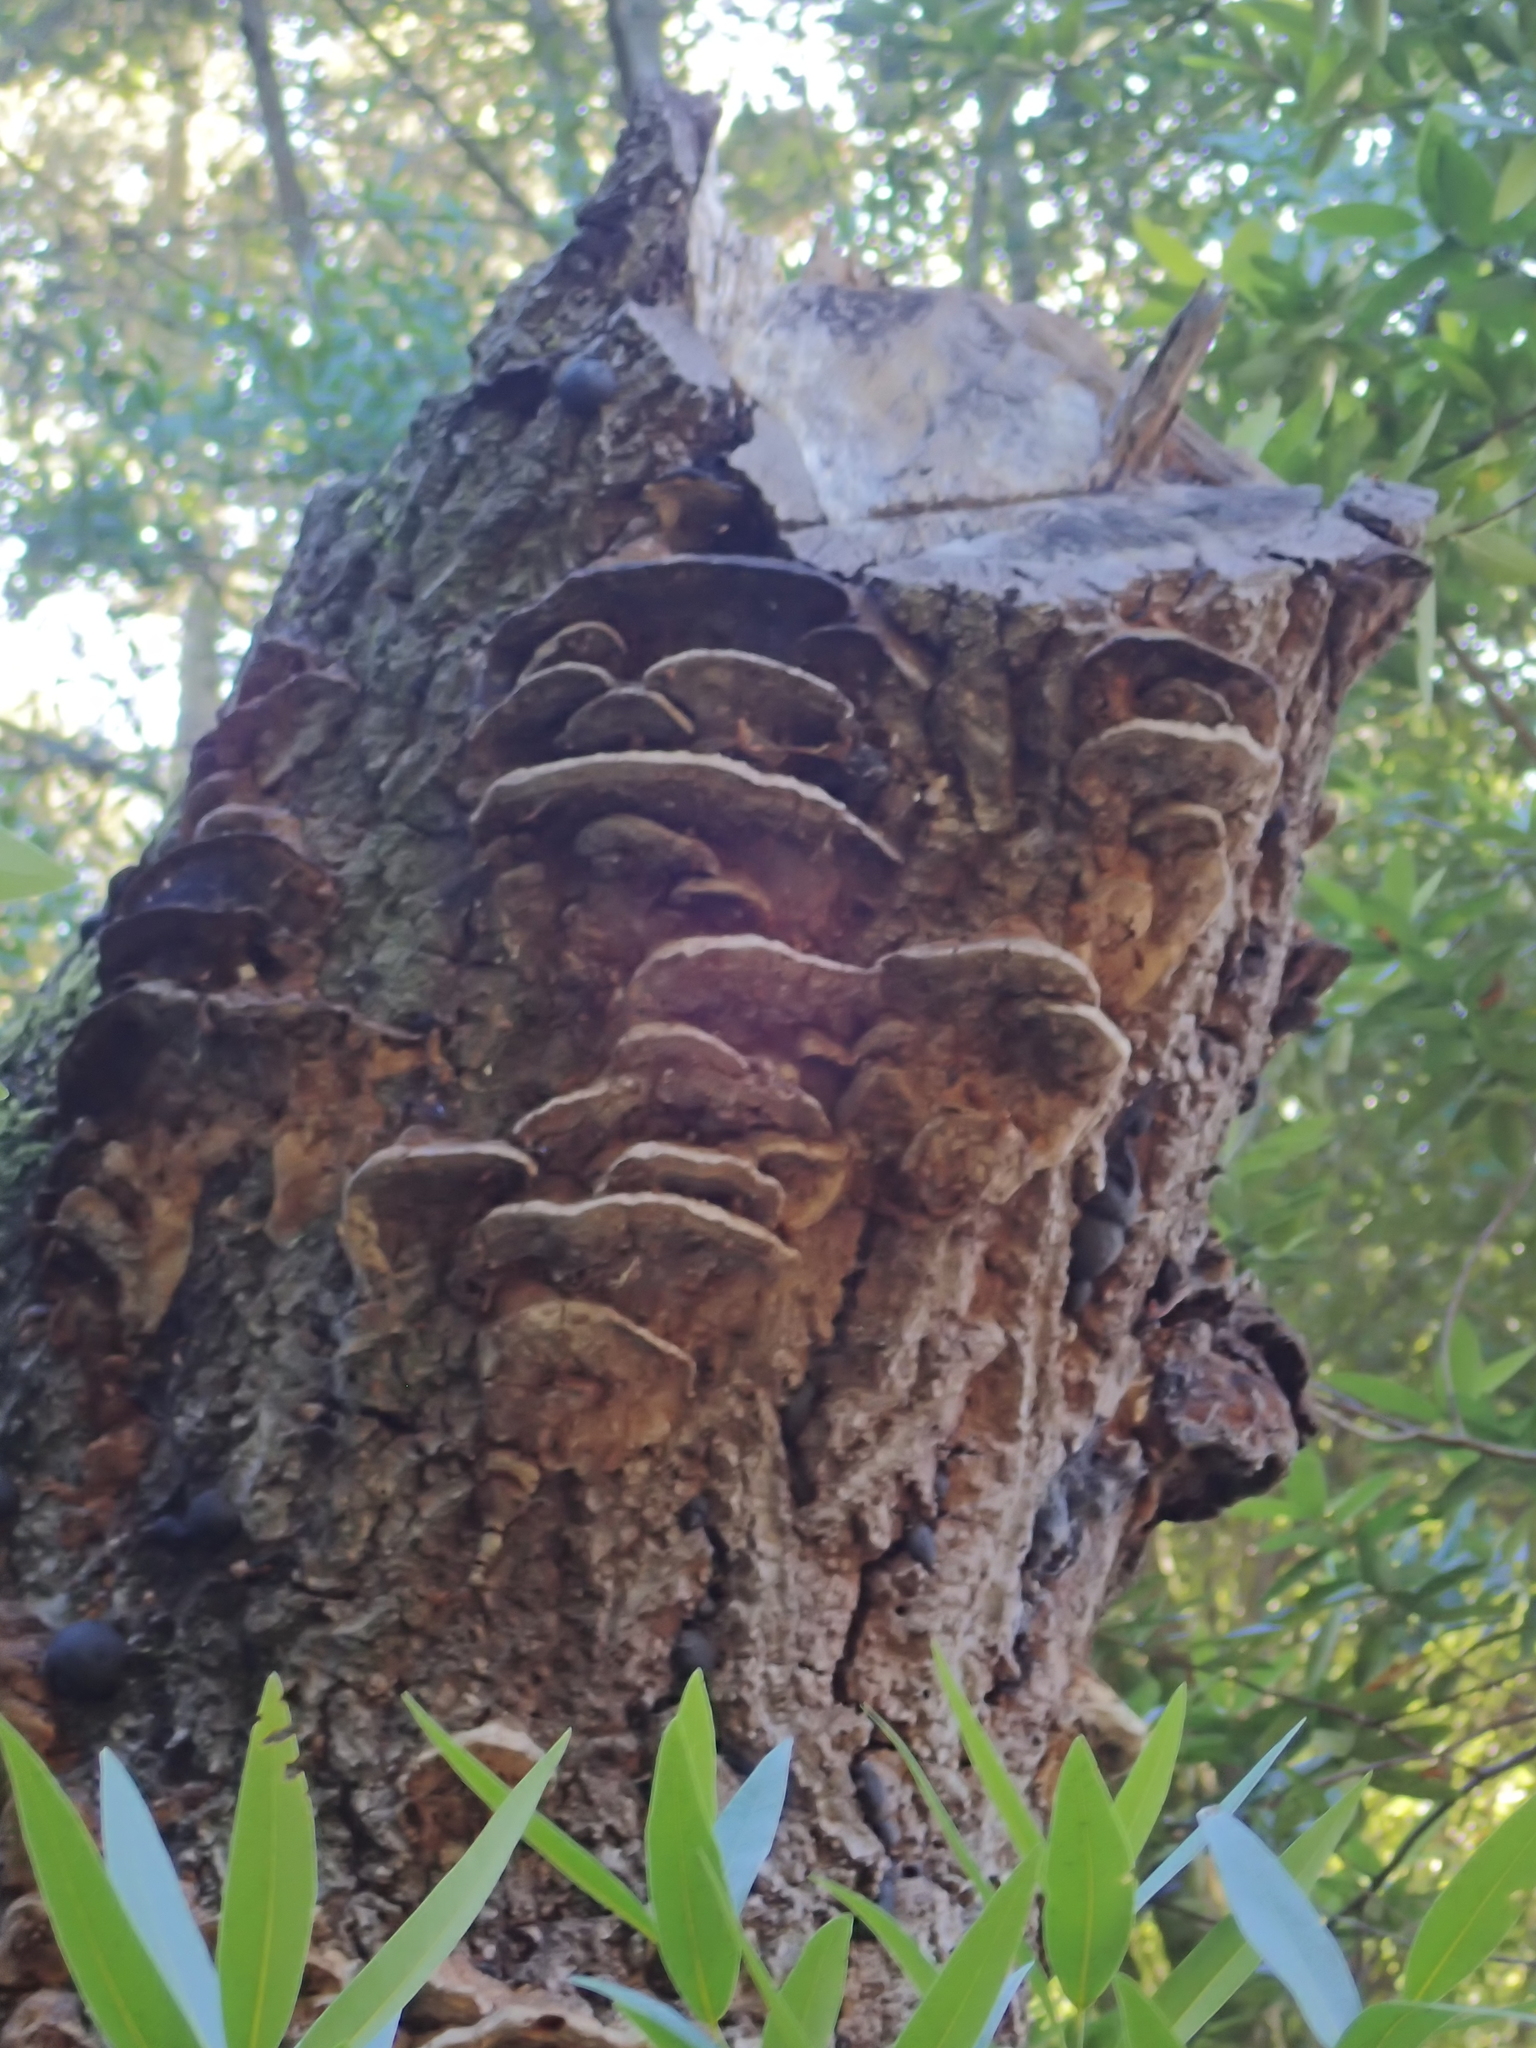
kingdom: Fungi
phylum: Basidiomycota
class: Agaricomycetes
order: Hymenochaetales
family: Hymenochaetaceae
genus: Phellinus
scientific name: Phellinus gilvus
